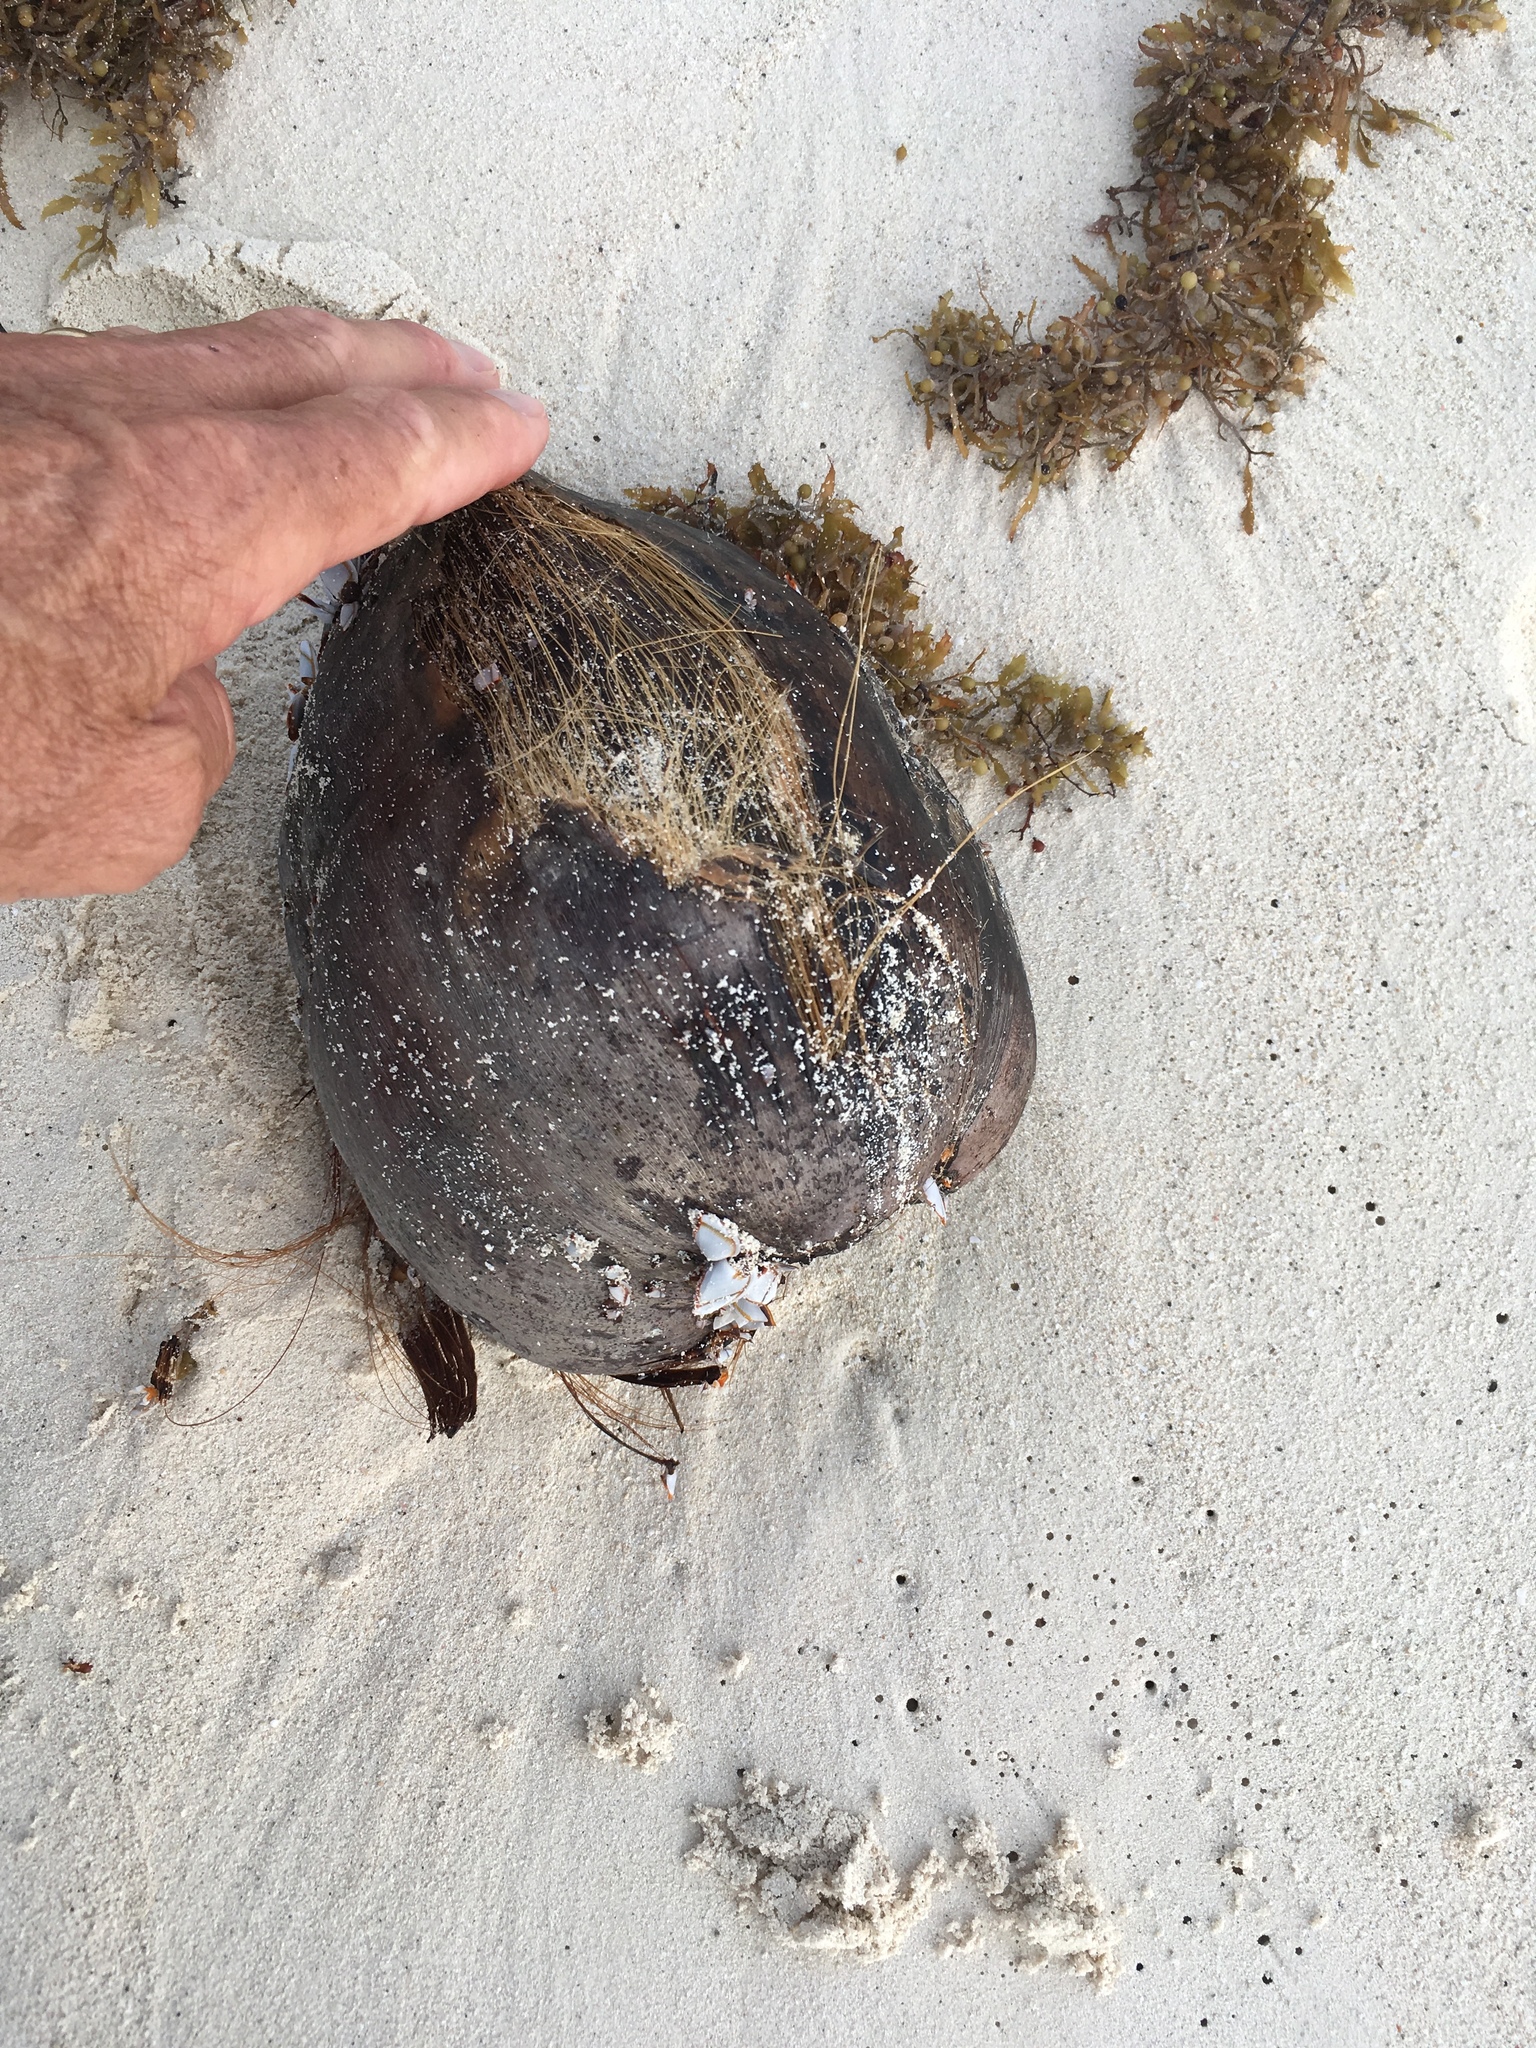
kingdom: Plantae
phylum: Tracheophyta
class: Liliopsida
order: Arecales
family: Arecaceae
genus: Cocos
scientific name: Cocos nucifera
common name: Coconut palm
